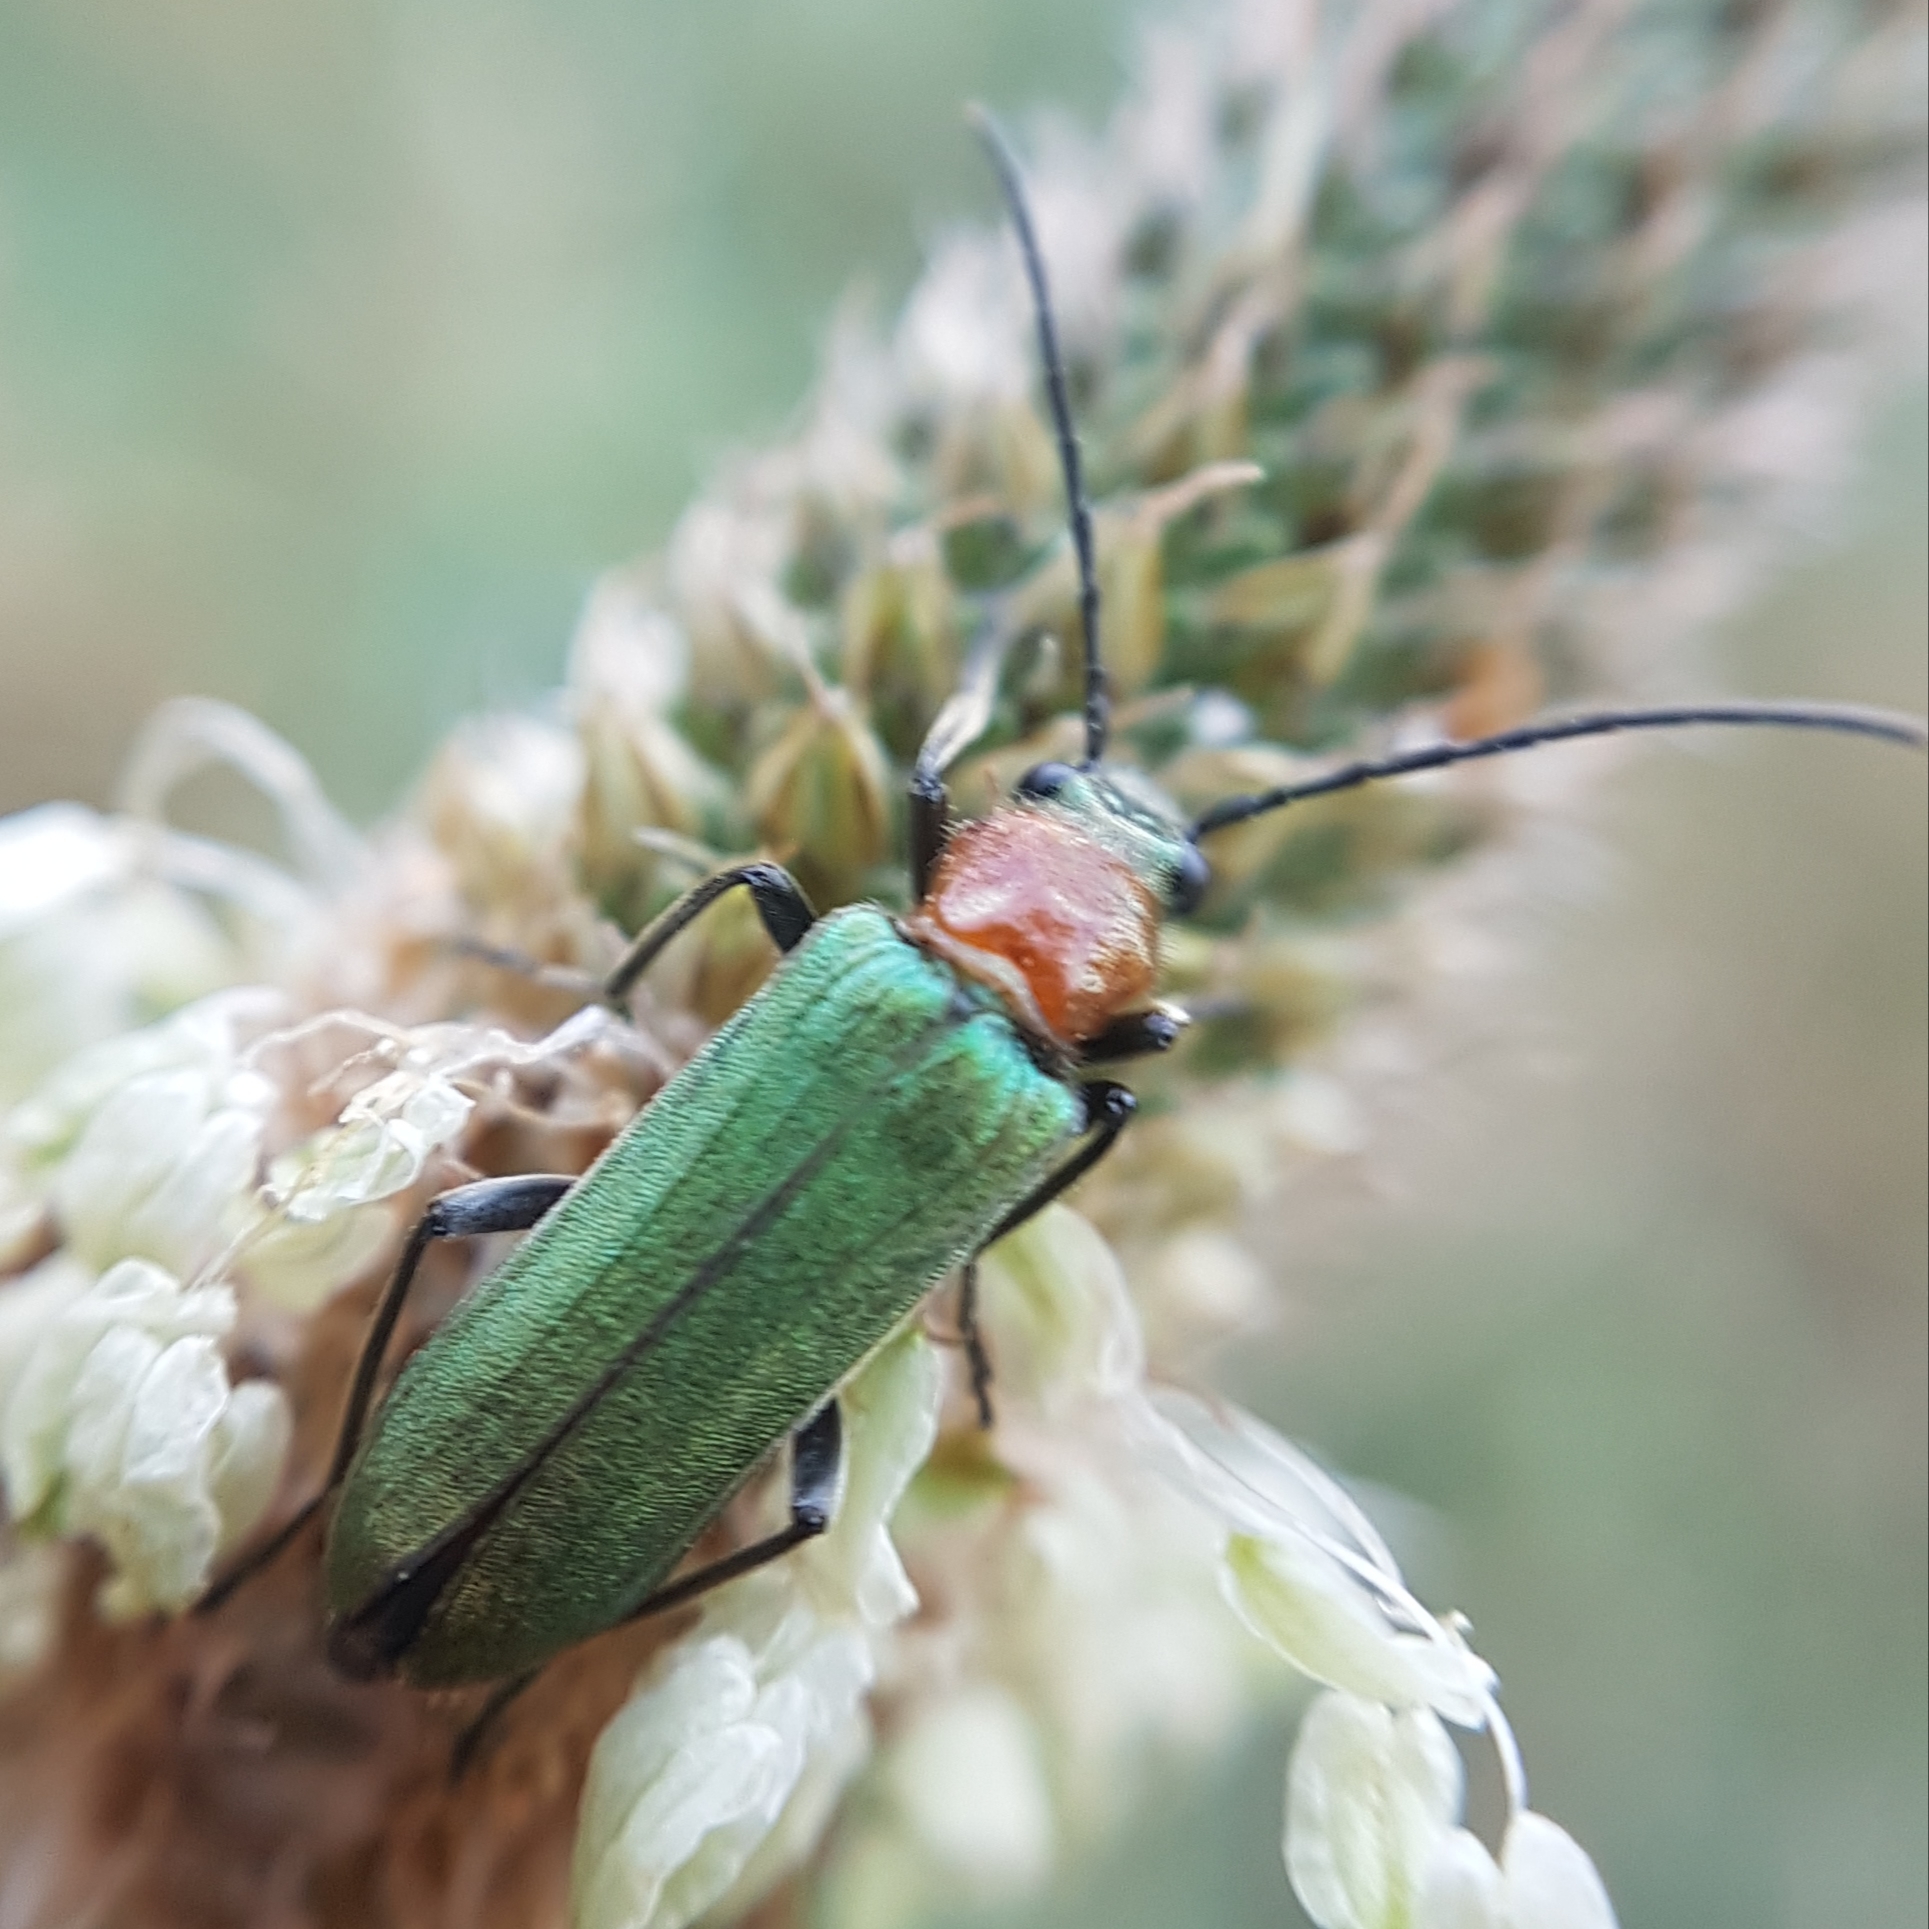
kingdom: Animalia
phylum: Arthropoda
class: Insecta
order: Coleoptera
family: Oedemeridae
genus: Anogcodes
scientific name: Anogcodes seladonius
